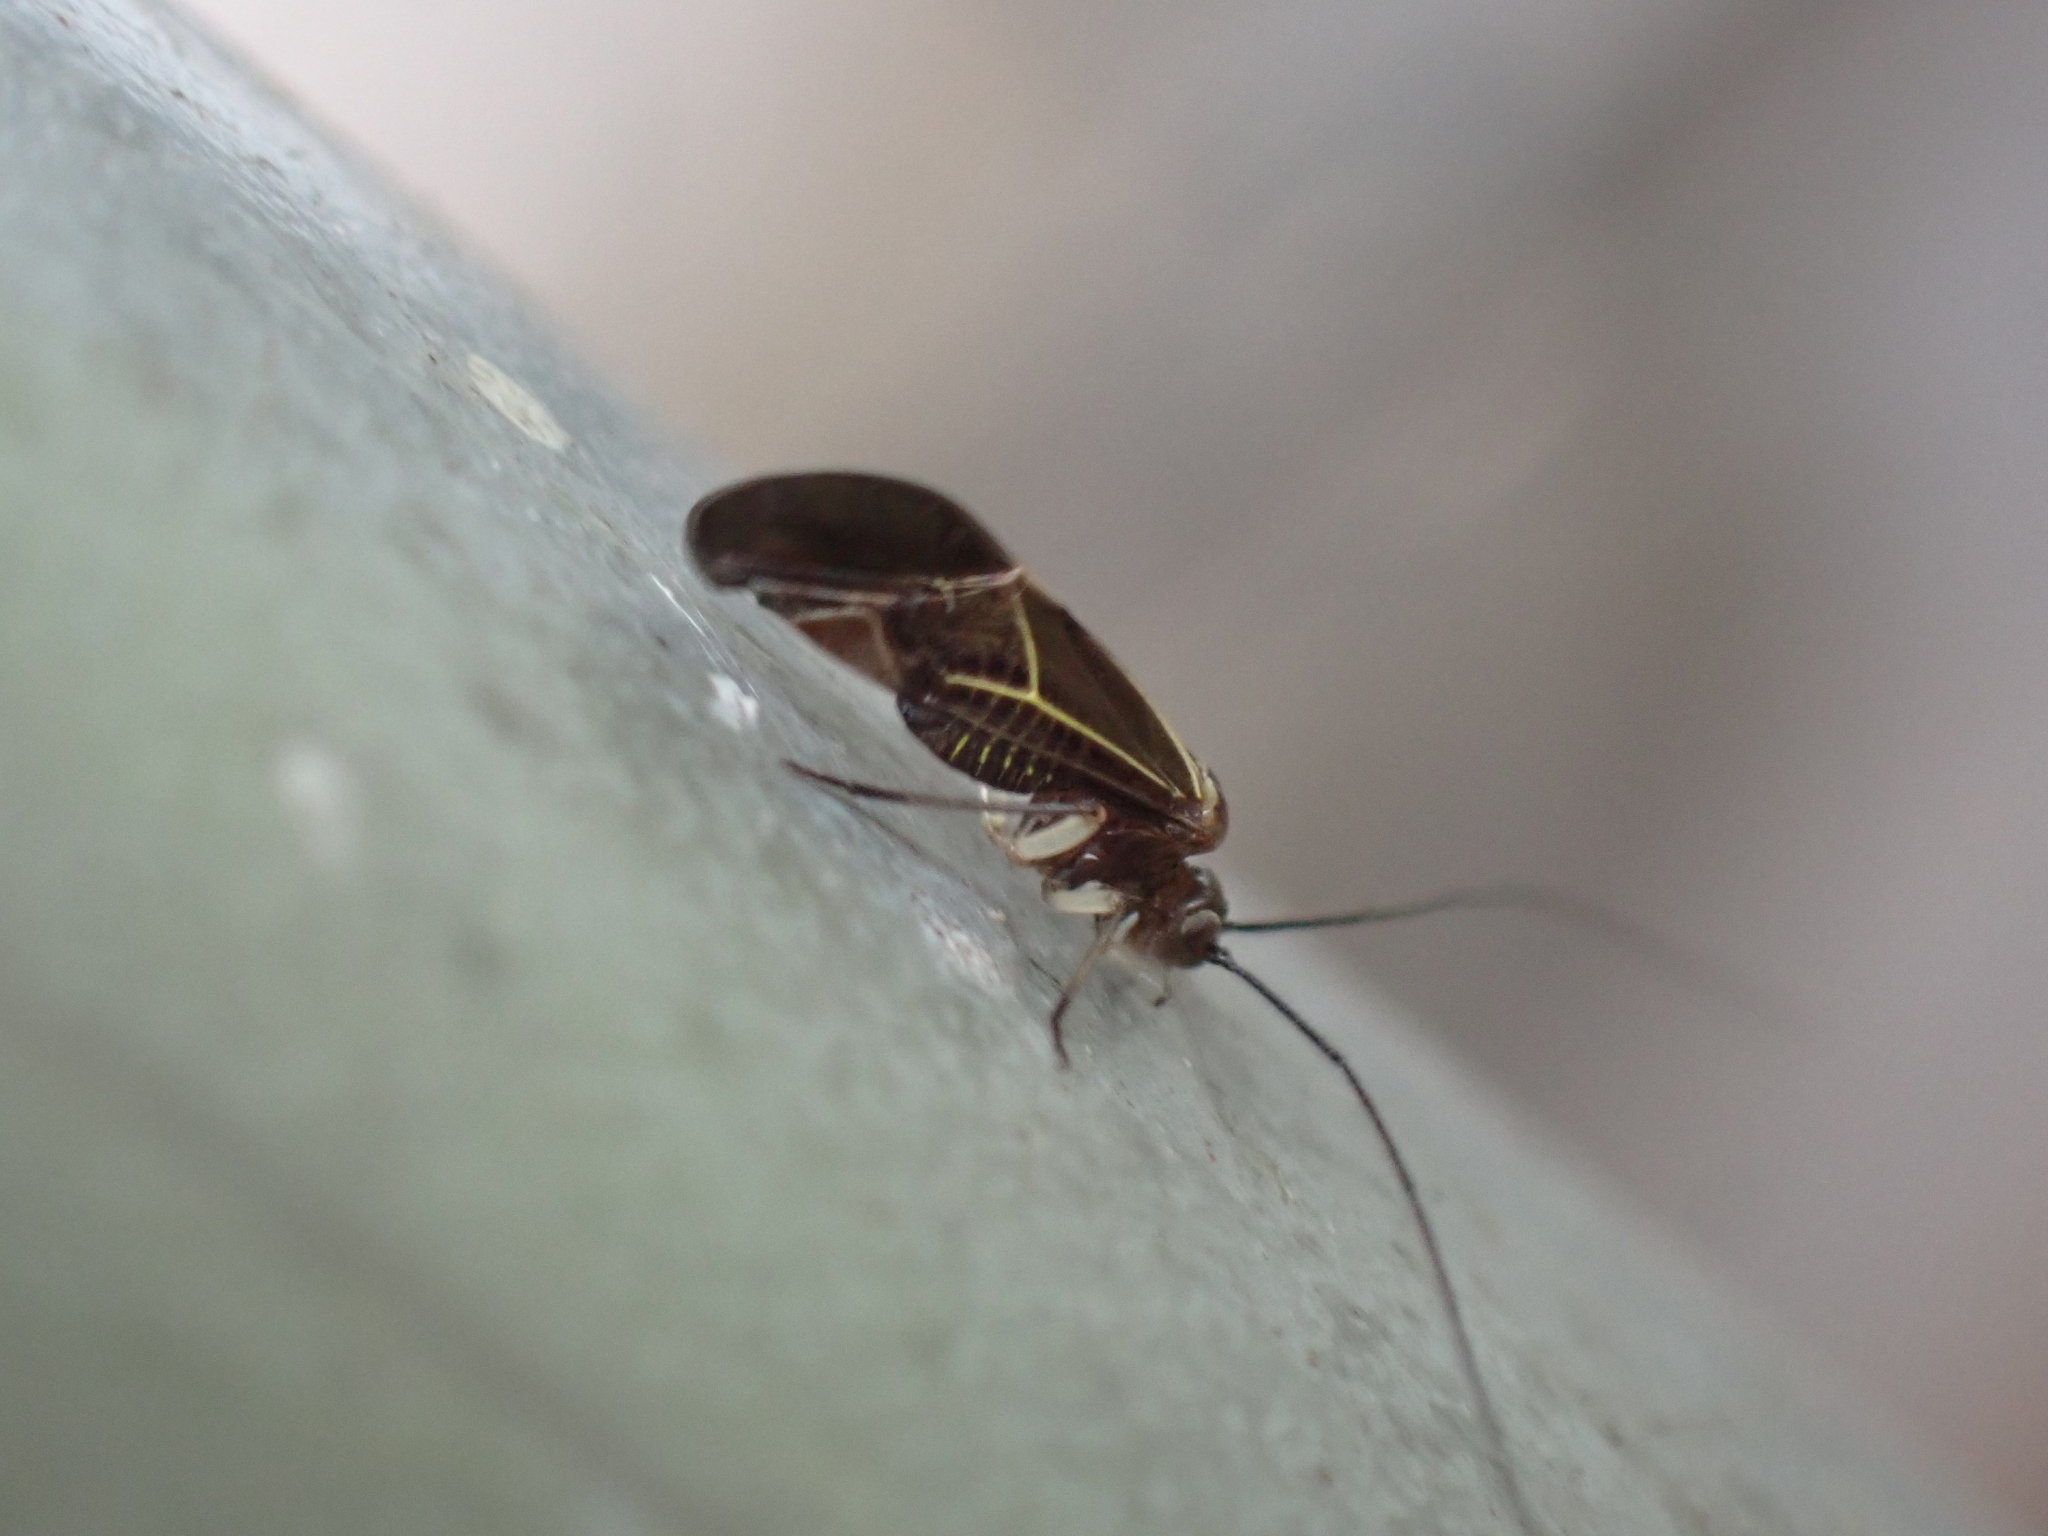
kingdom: Animalia
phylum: Arthropoda
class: Insecta
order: Psocodea
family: Psocidae
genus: Cerastipsocus
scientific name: Cerastipsocus venosus
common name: Tree cattle
